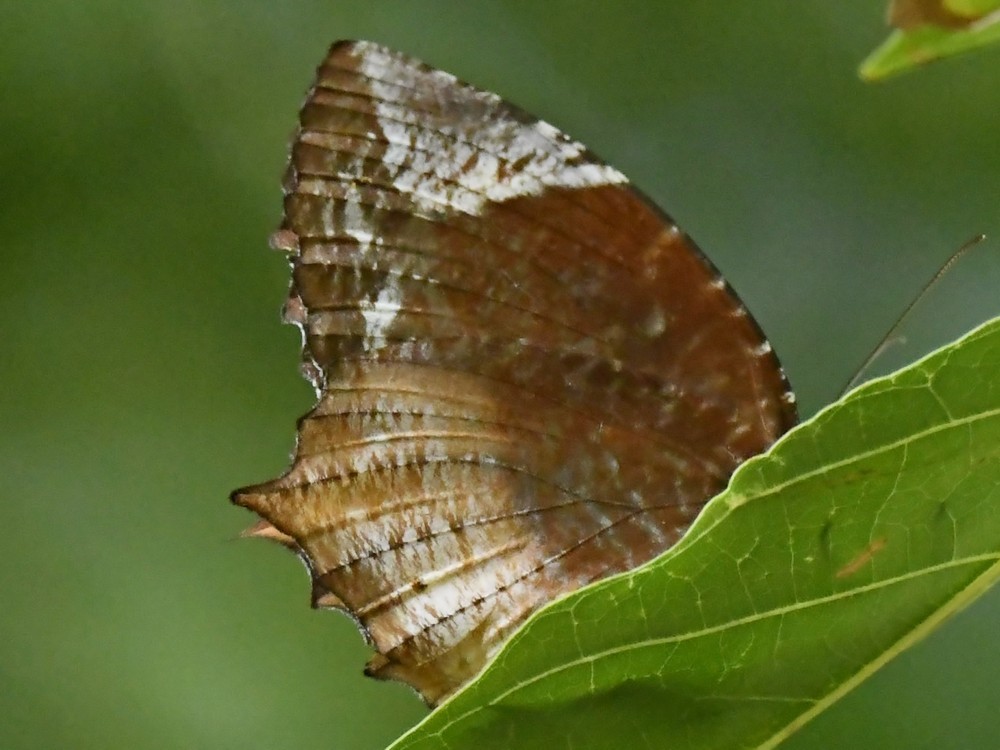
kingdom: Animalia
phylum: Arthropoda
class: Insecta
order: Lepidoptera
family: Nymphalidae
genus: Elymnias
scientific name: Elymnias caudata
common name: Tailed palmfly
